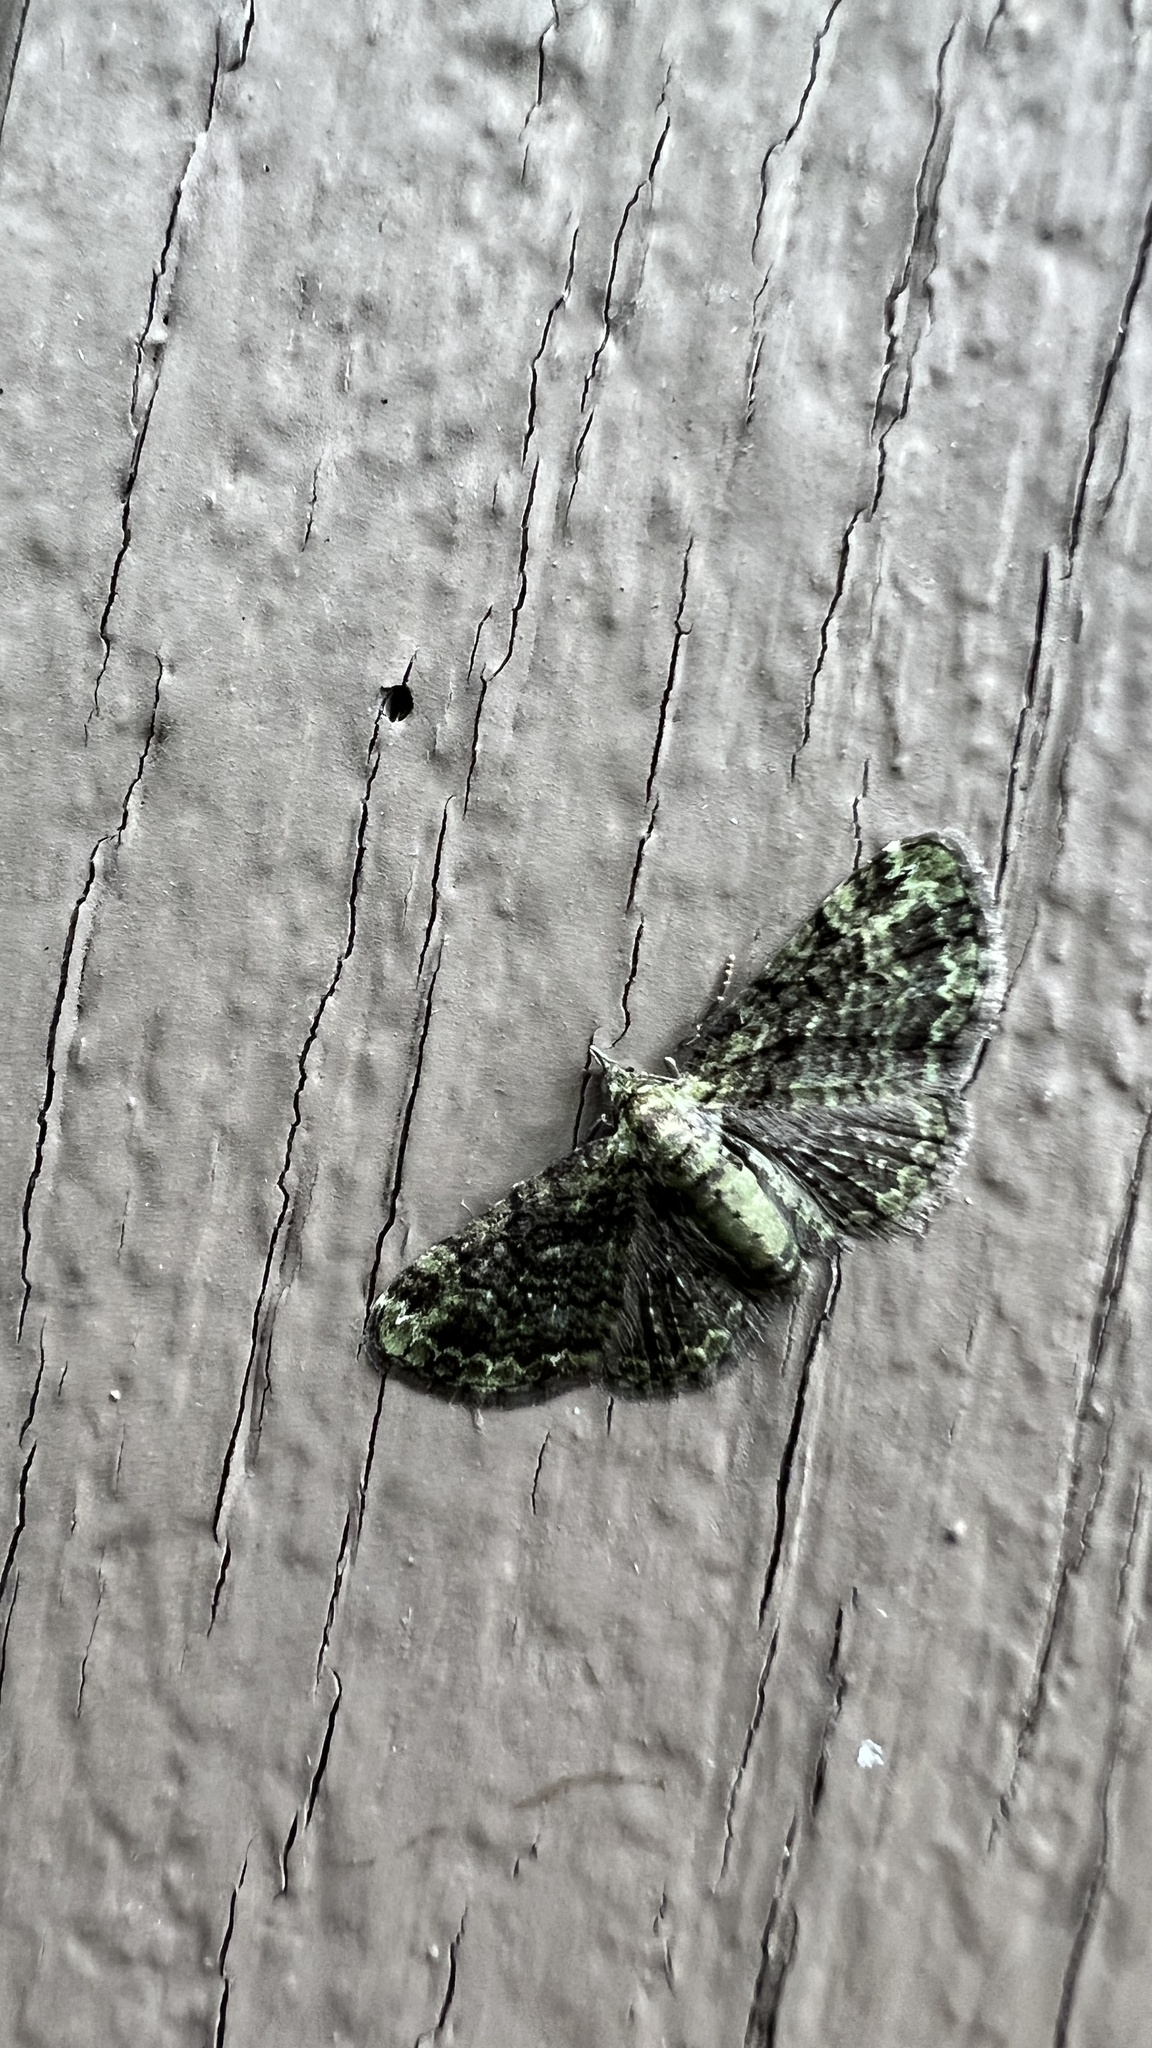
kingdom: Animalia
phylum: Arthropoda
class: Insecta
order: Lepidoptera
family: Geometridae
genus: Pasiphila
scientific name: Pasiphila rectangulata
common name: Green pug
